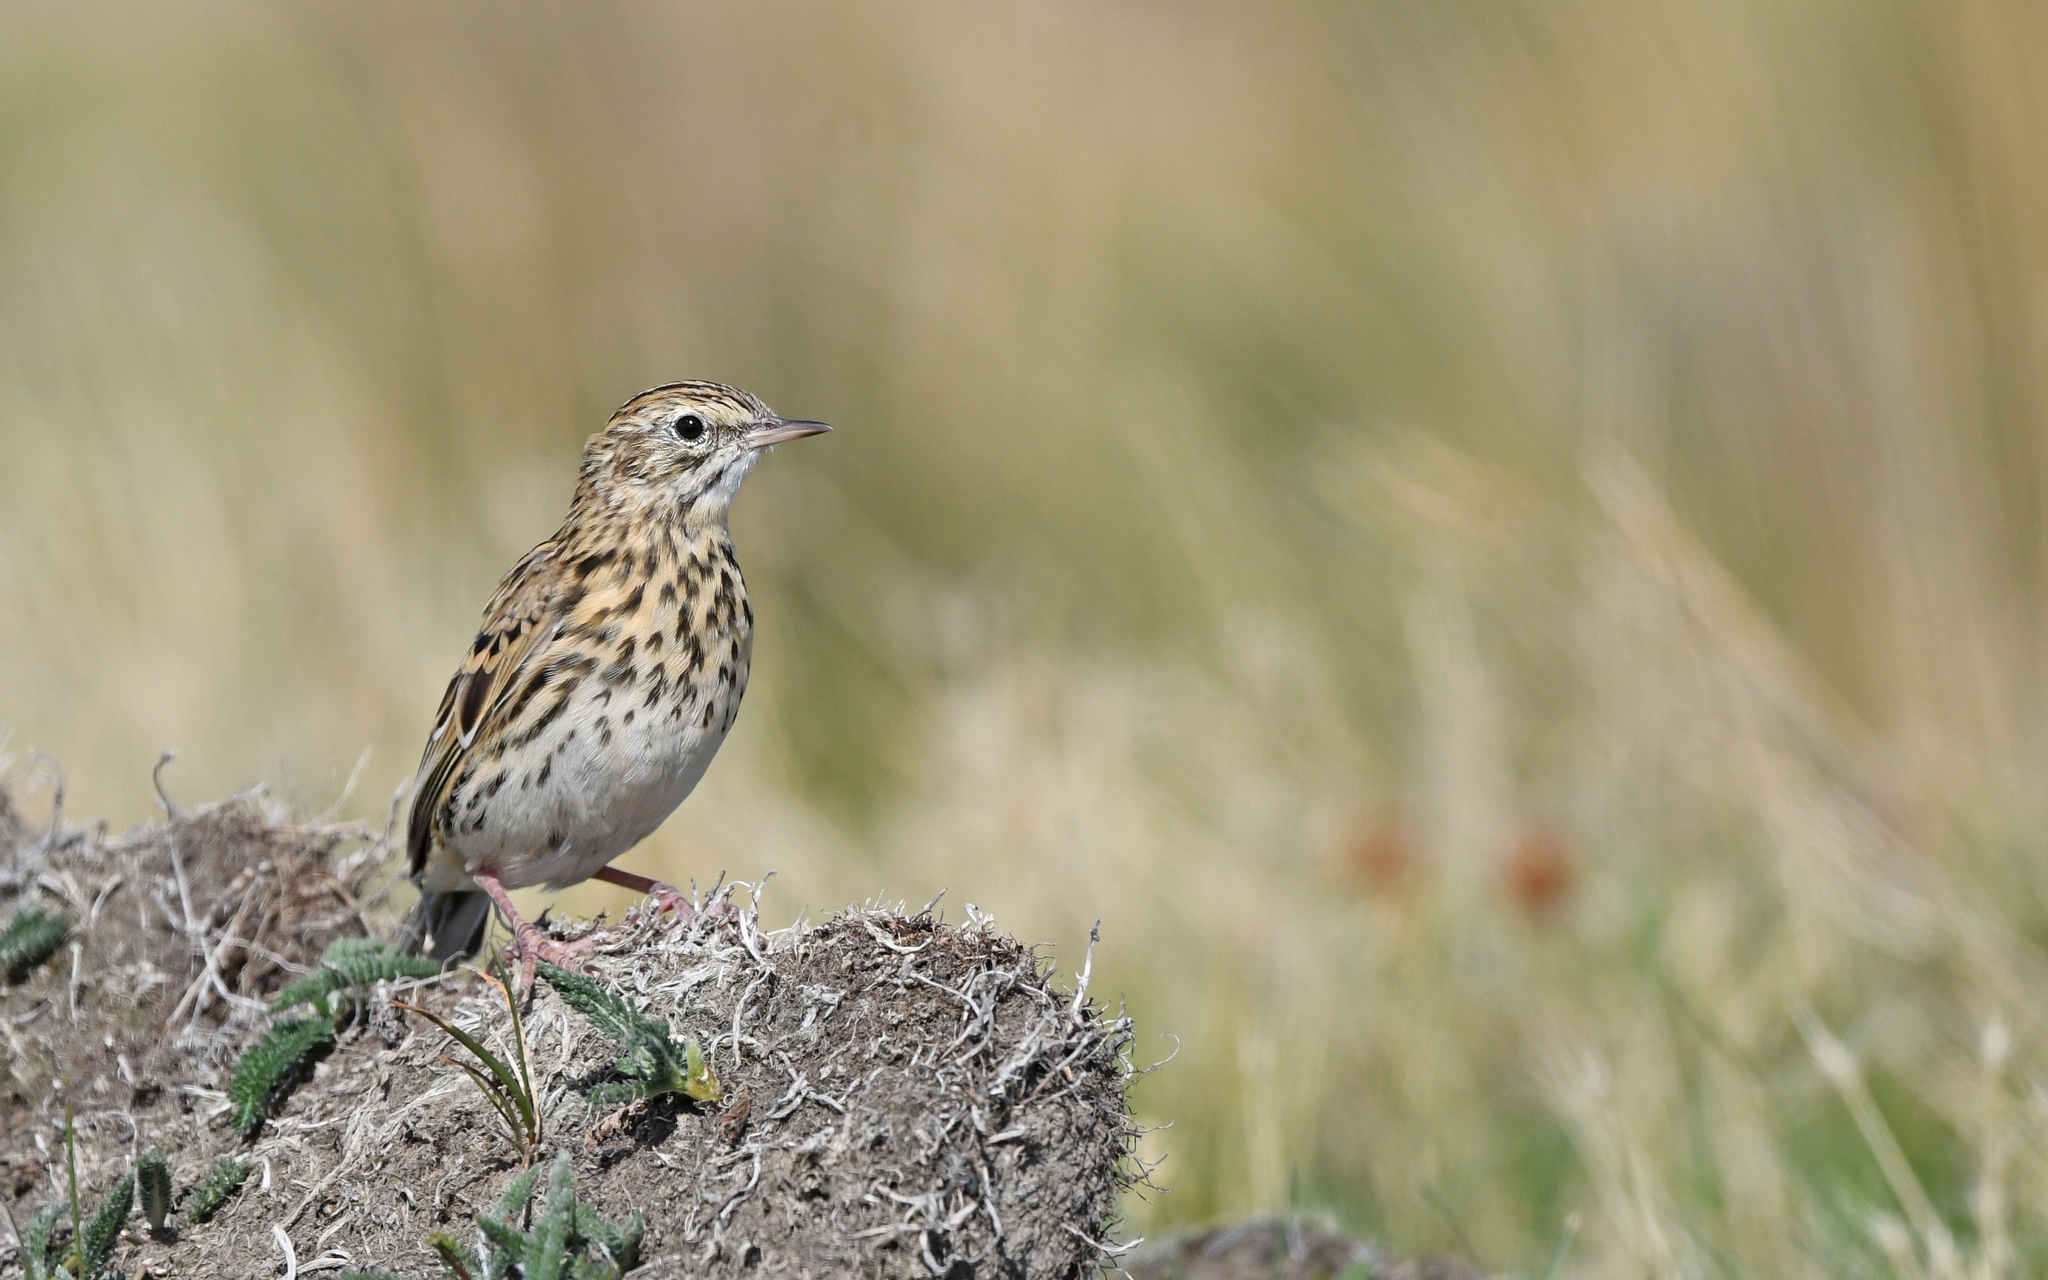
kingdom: Animalia
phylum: Chordata
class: Aves
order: Passeriformes
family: Motacillidae
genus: Anthus
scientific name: Anthus correndera
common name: Correndera pipit
